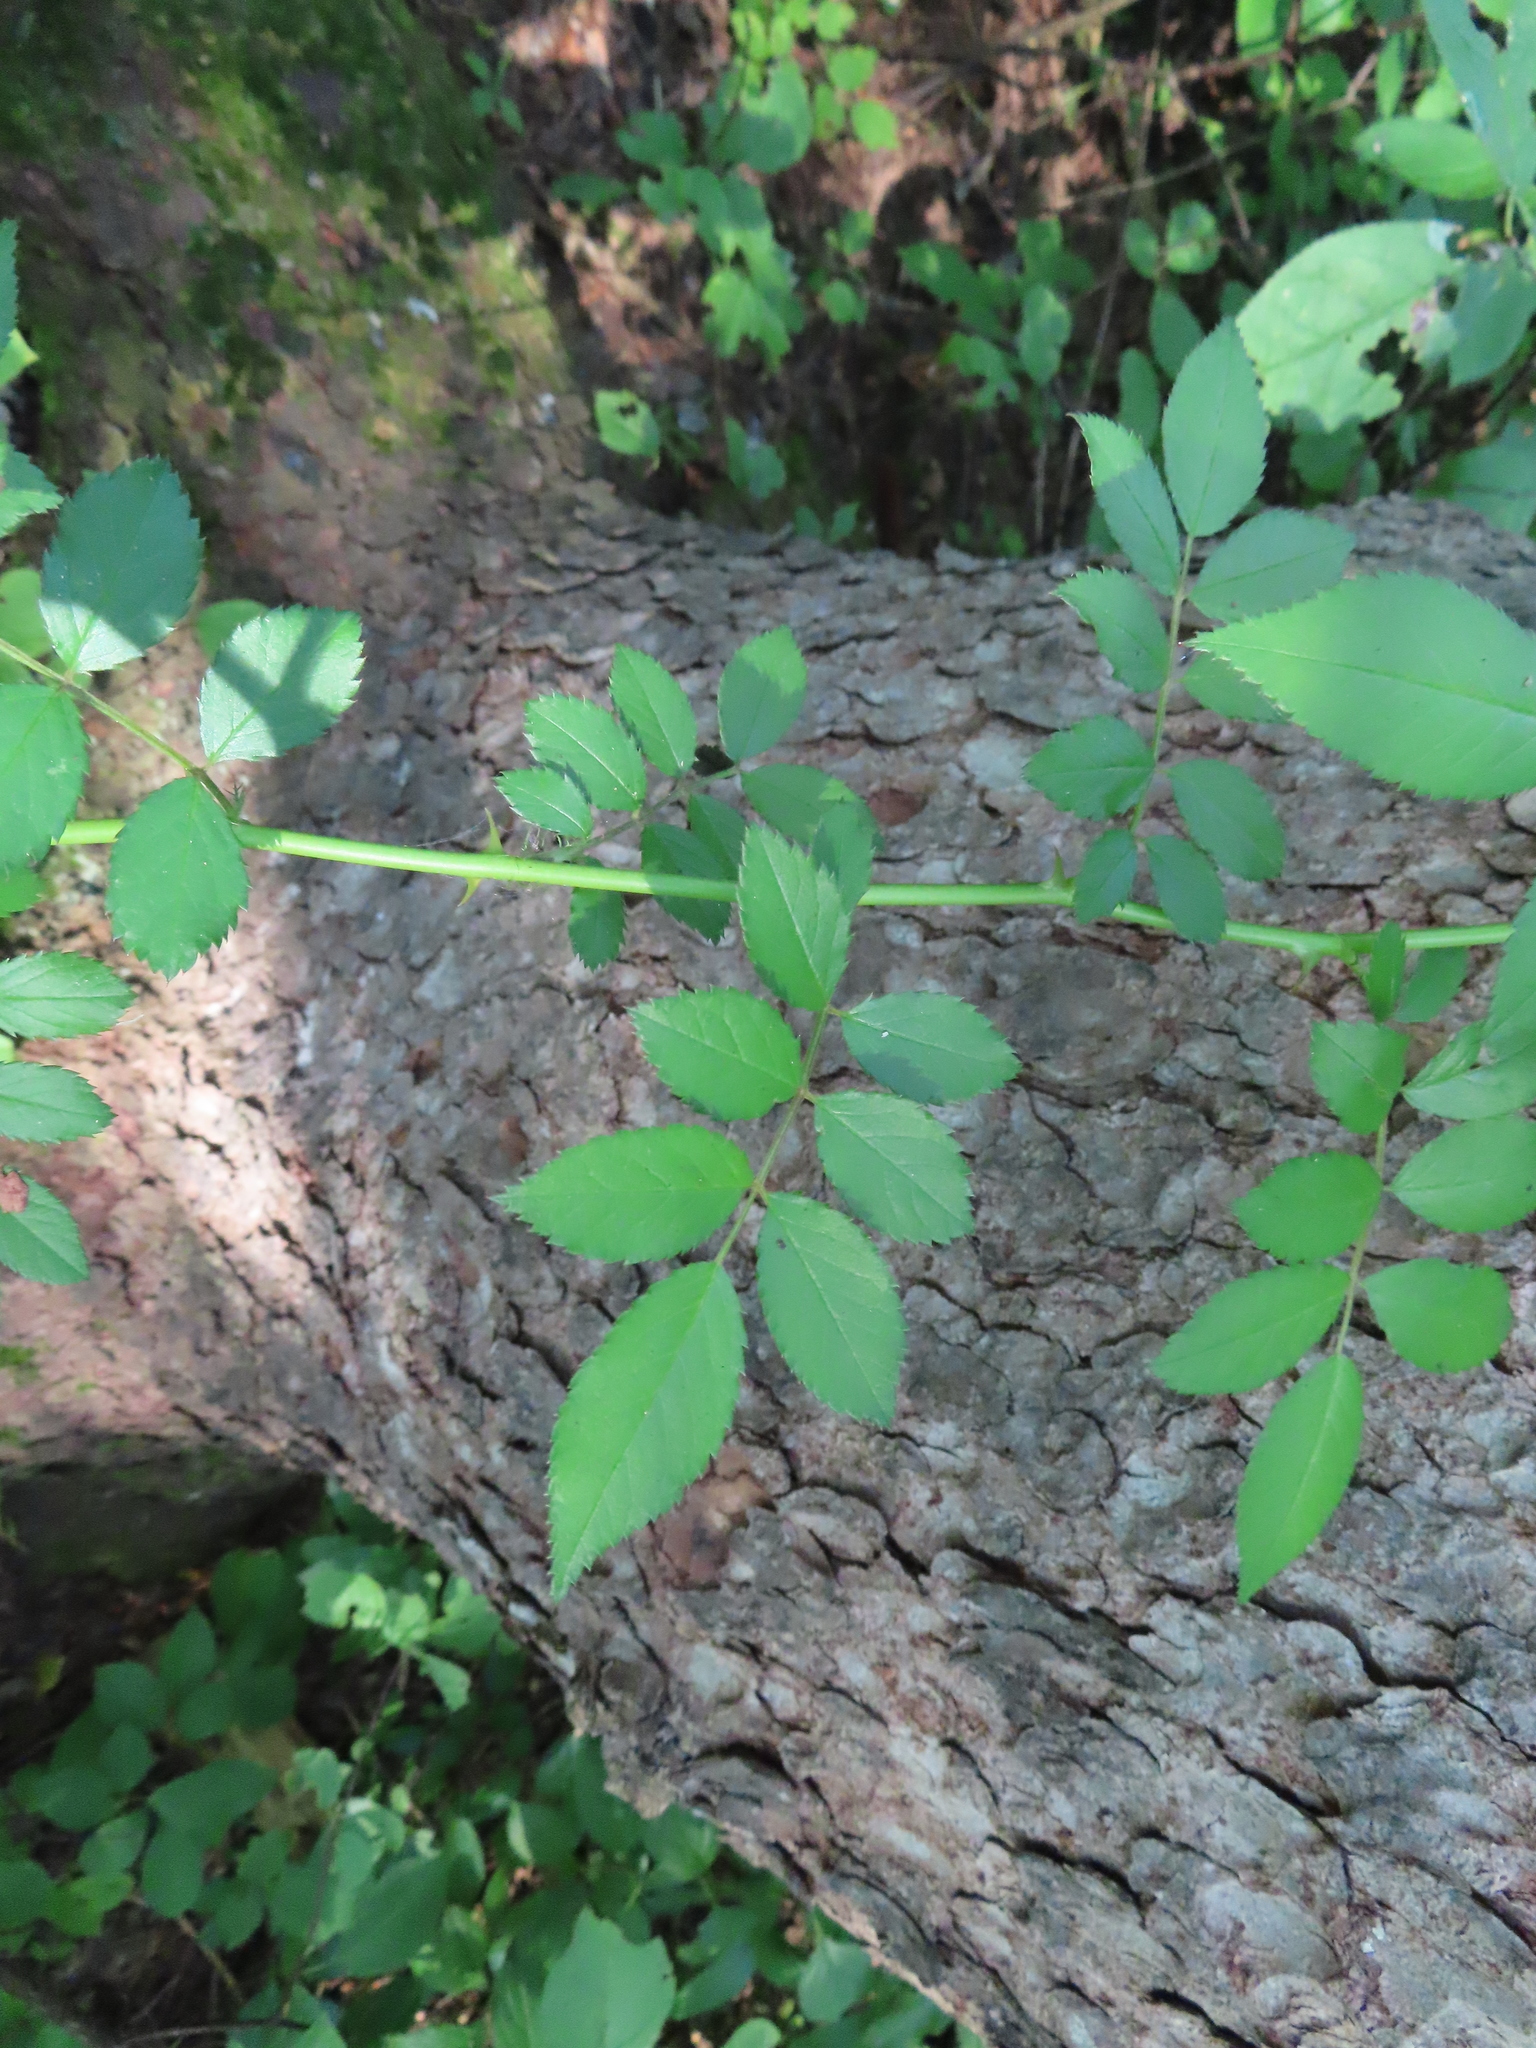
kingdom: Plantae
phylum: Tracheophyta
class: Magnoliopsida
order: Rosales
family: Rosaceae
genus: Rosa
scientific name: Rosa multiflora
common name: Multiflora rose
